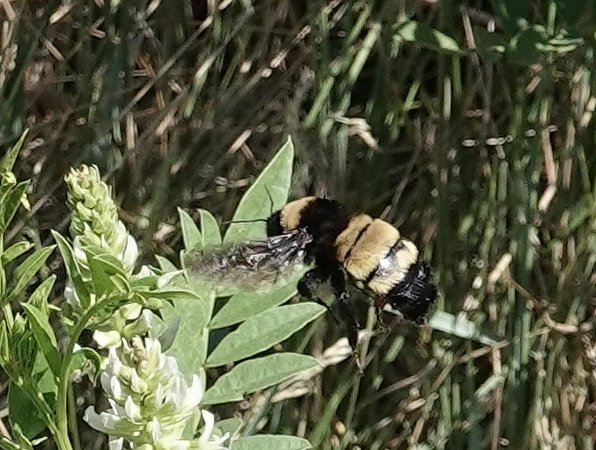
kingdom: Animalia
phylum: Arthropoda
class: Insecta
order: Hymenoptera
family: Apidae
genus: Bombus
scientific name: Bombus pensylvanicus
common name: Bumble bee
